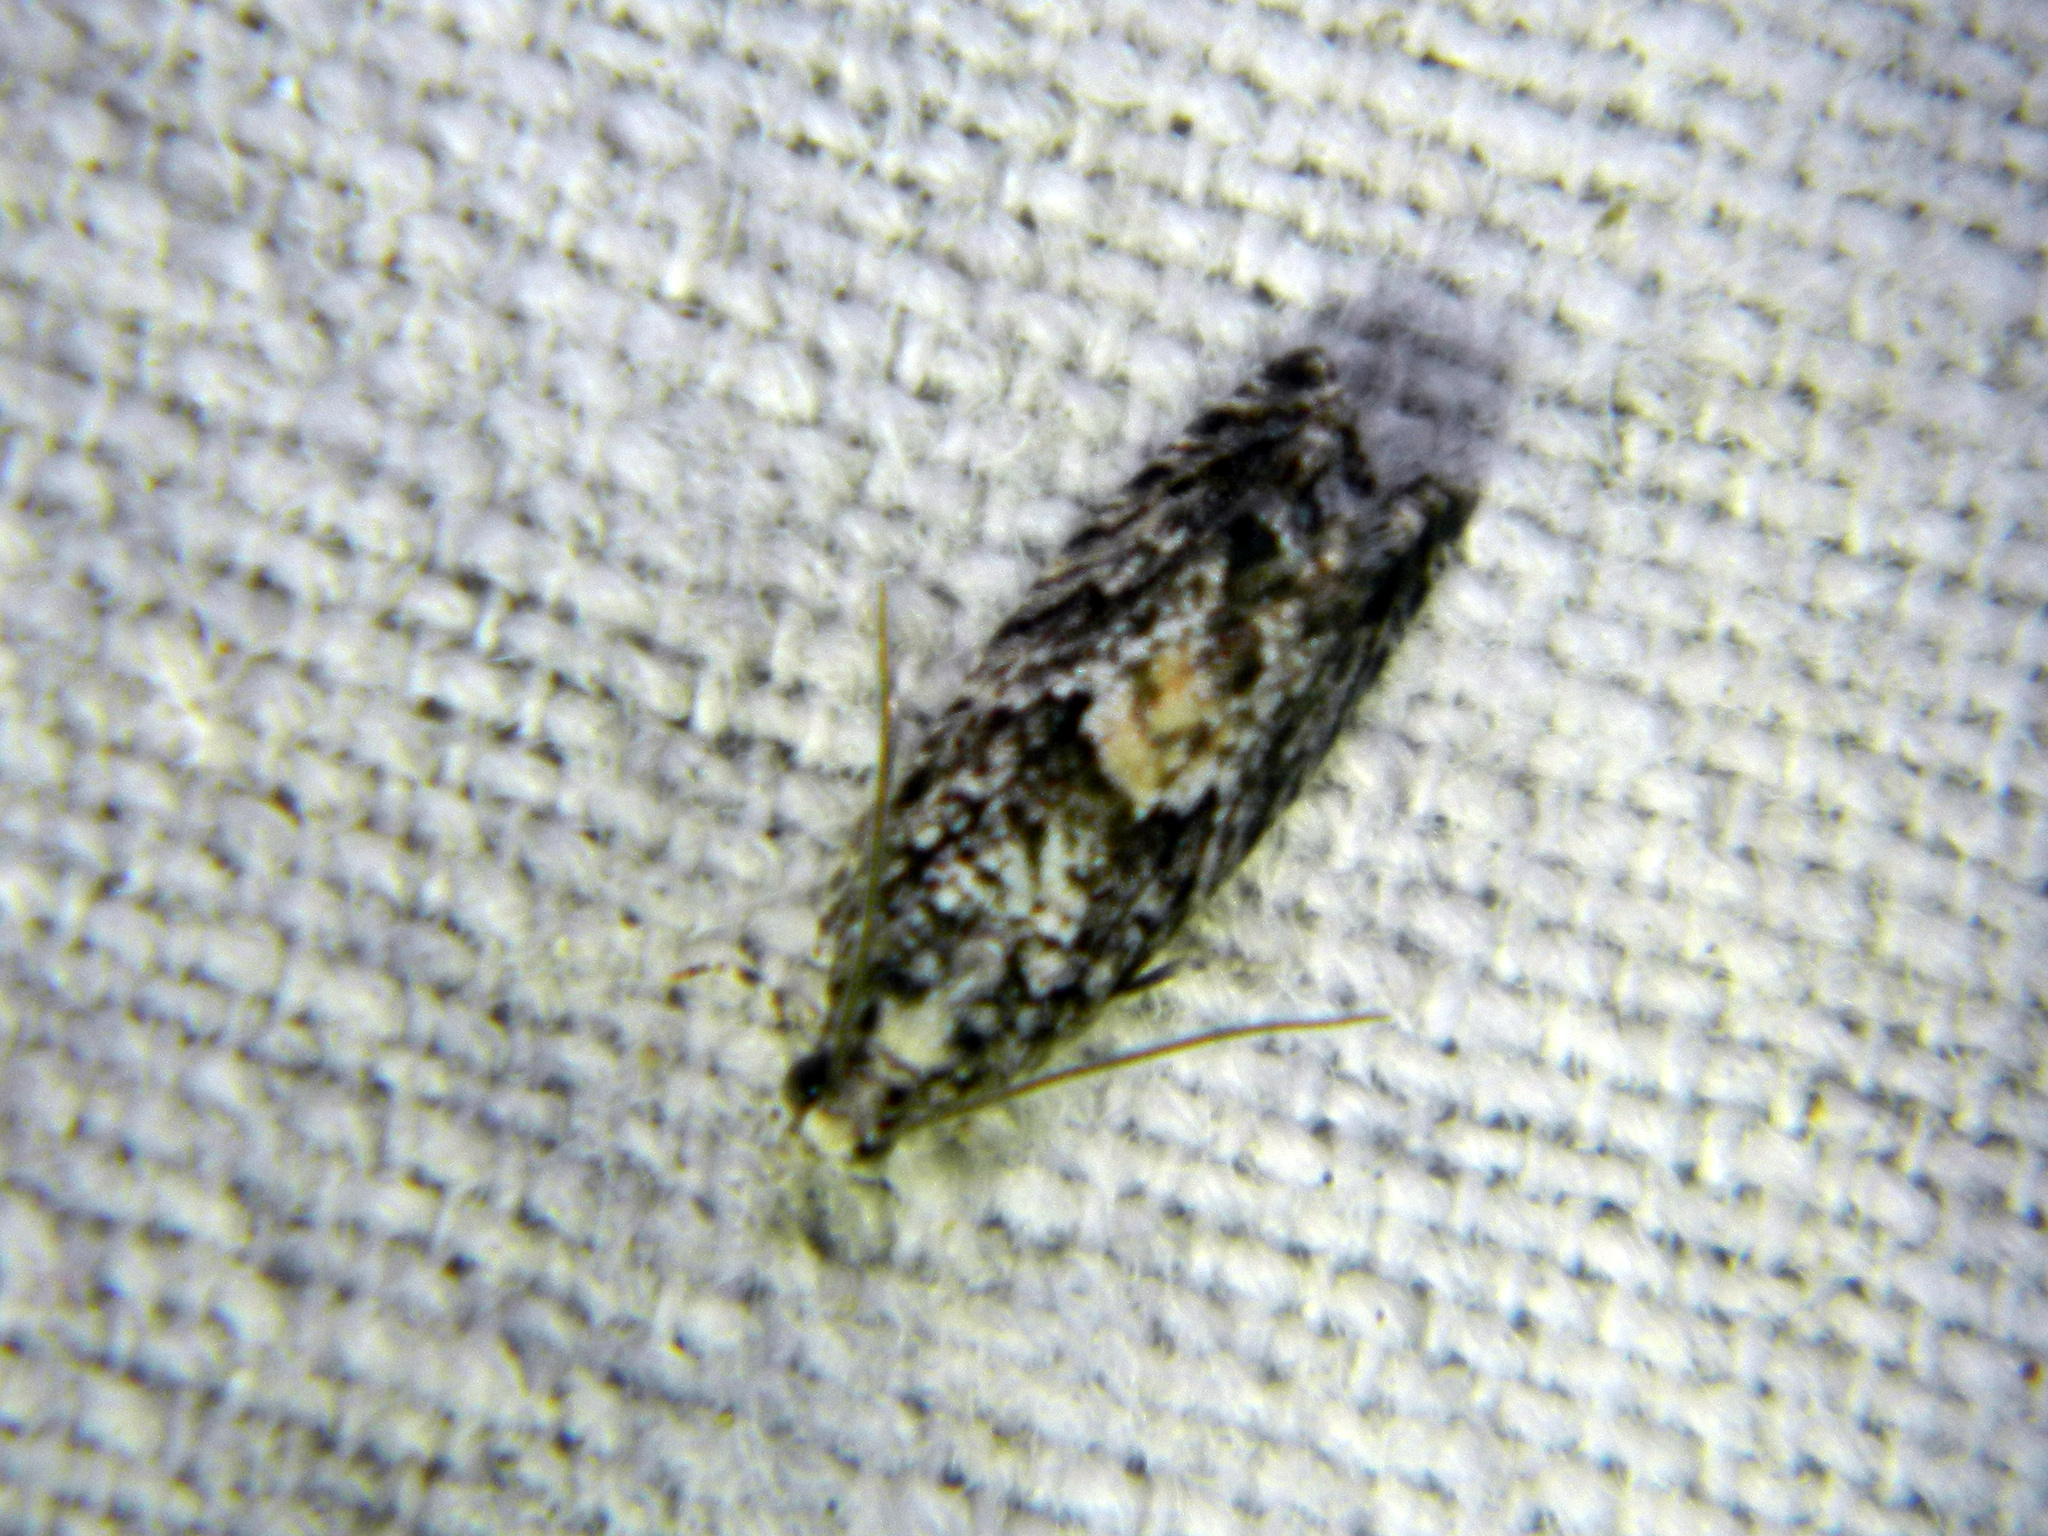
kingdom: Animalia
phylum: Arthropoda
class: Insecta
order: Lepidoptera
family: Tortricidae
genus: Epinotia
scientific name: Epinotia nisella
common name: Grey poplar bell
